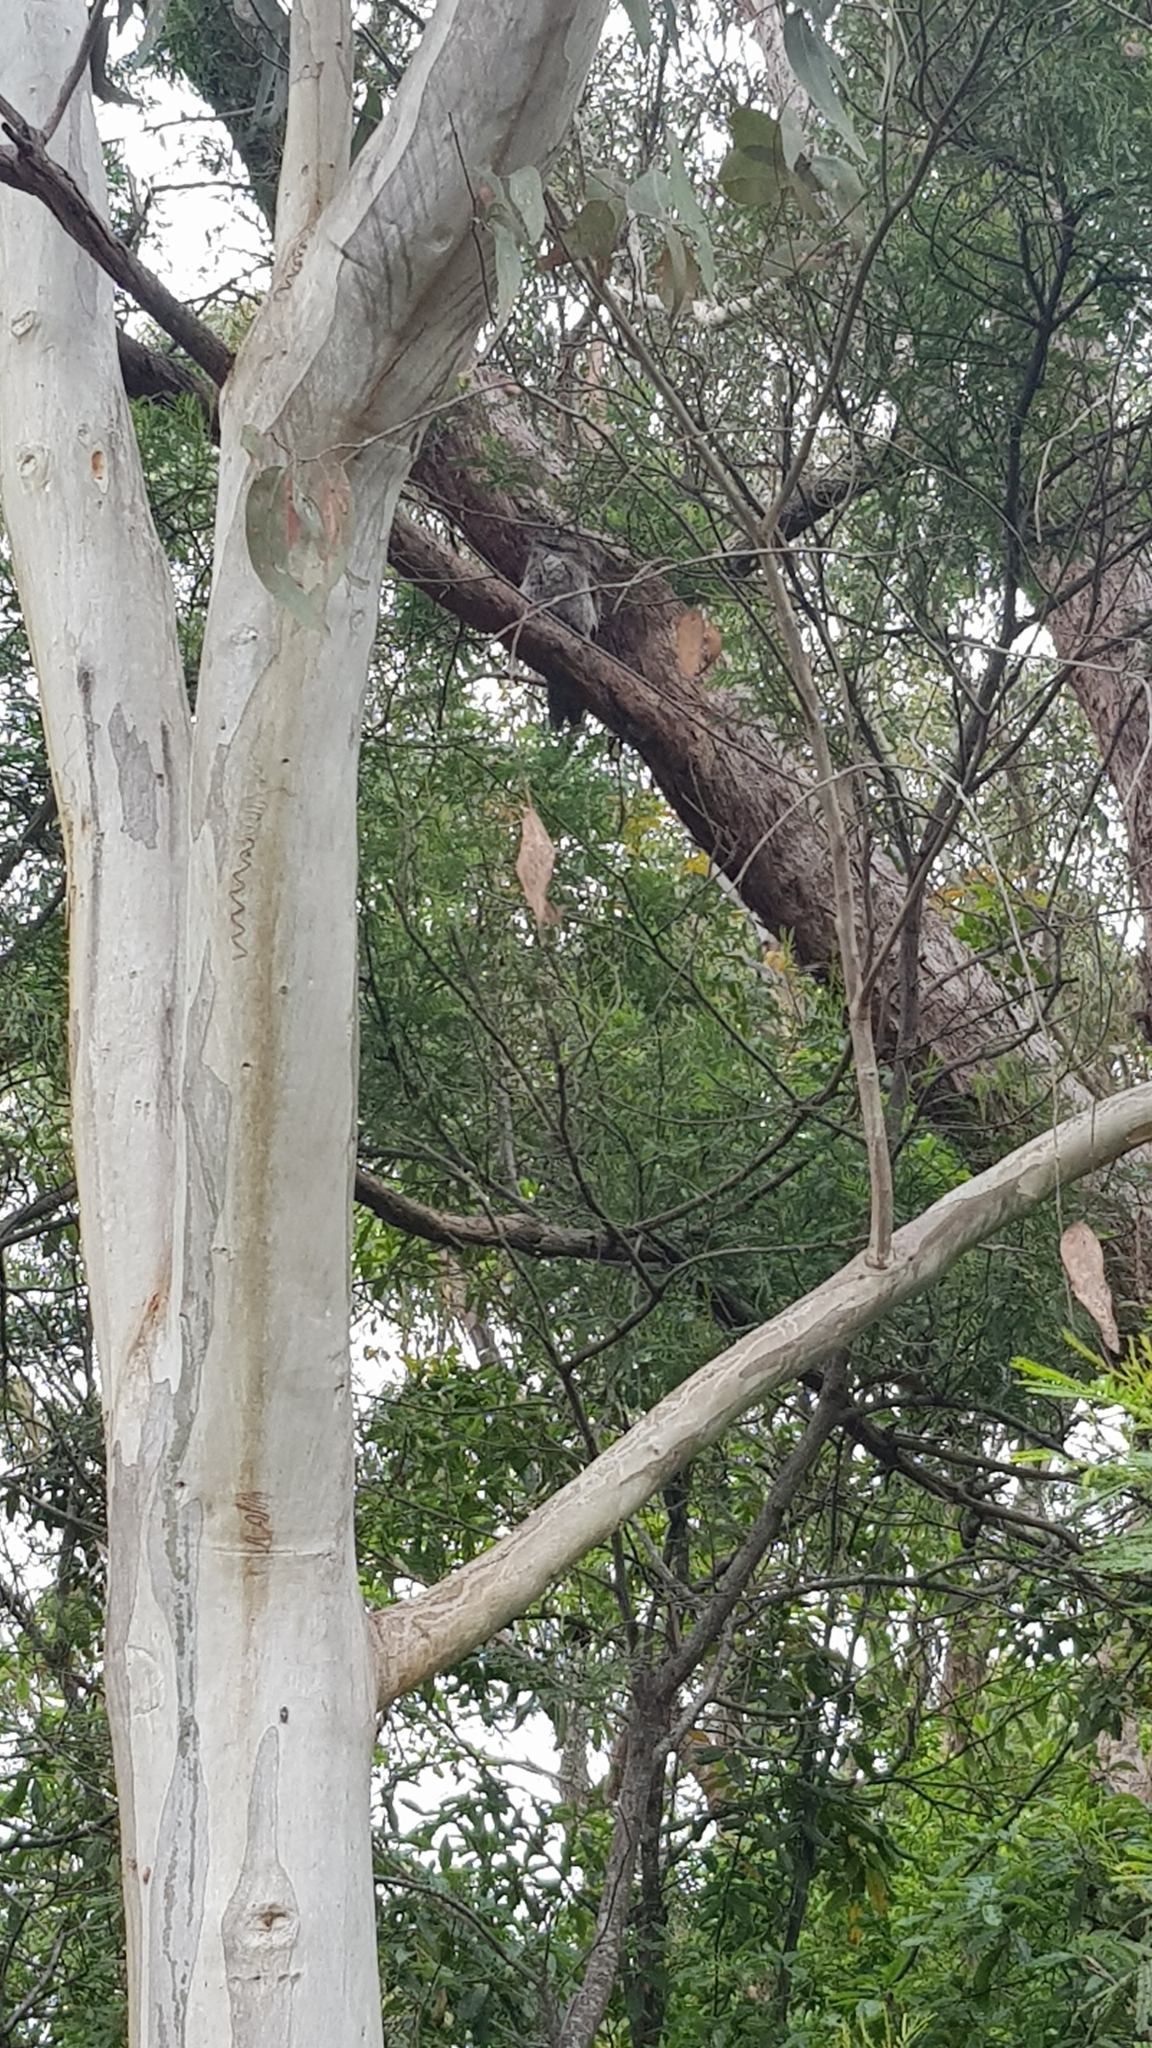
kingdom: Animalia
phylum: Chordata
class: Aves
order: Caprimulgiformes
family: Podargidae
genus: Podargus
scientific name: Podargus strigoides
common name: Tawny frogmouth
